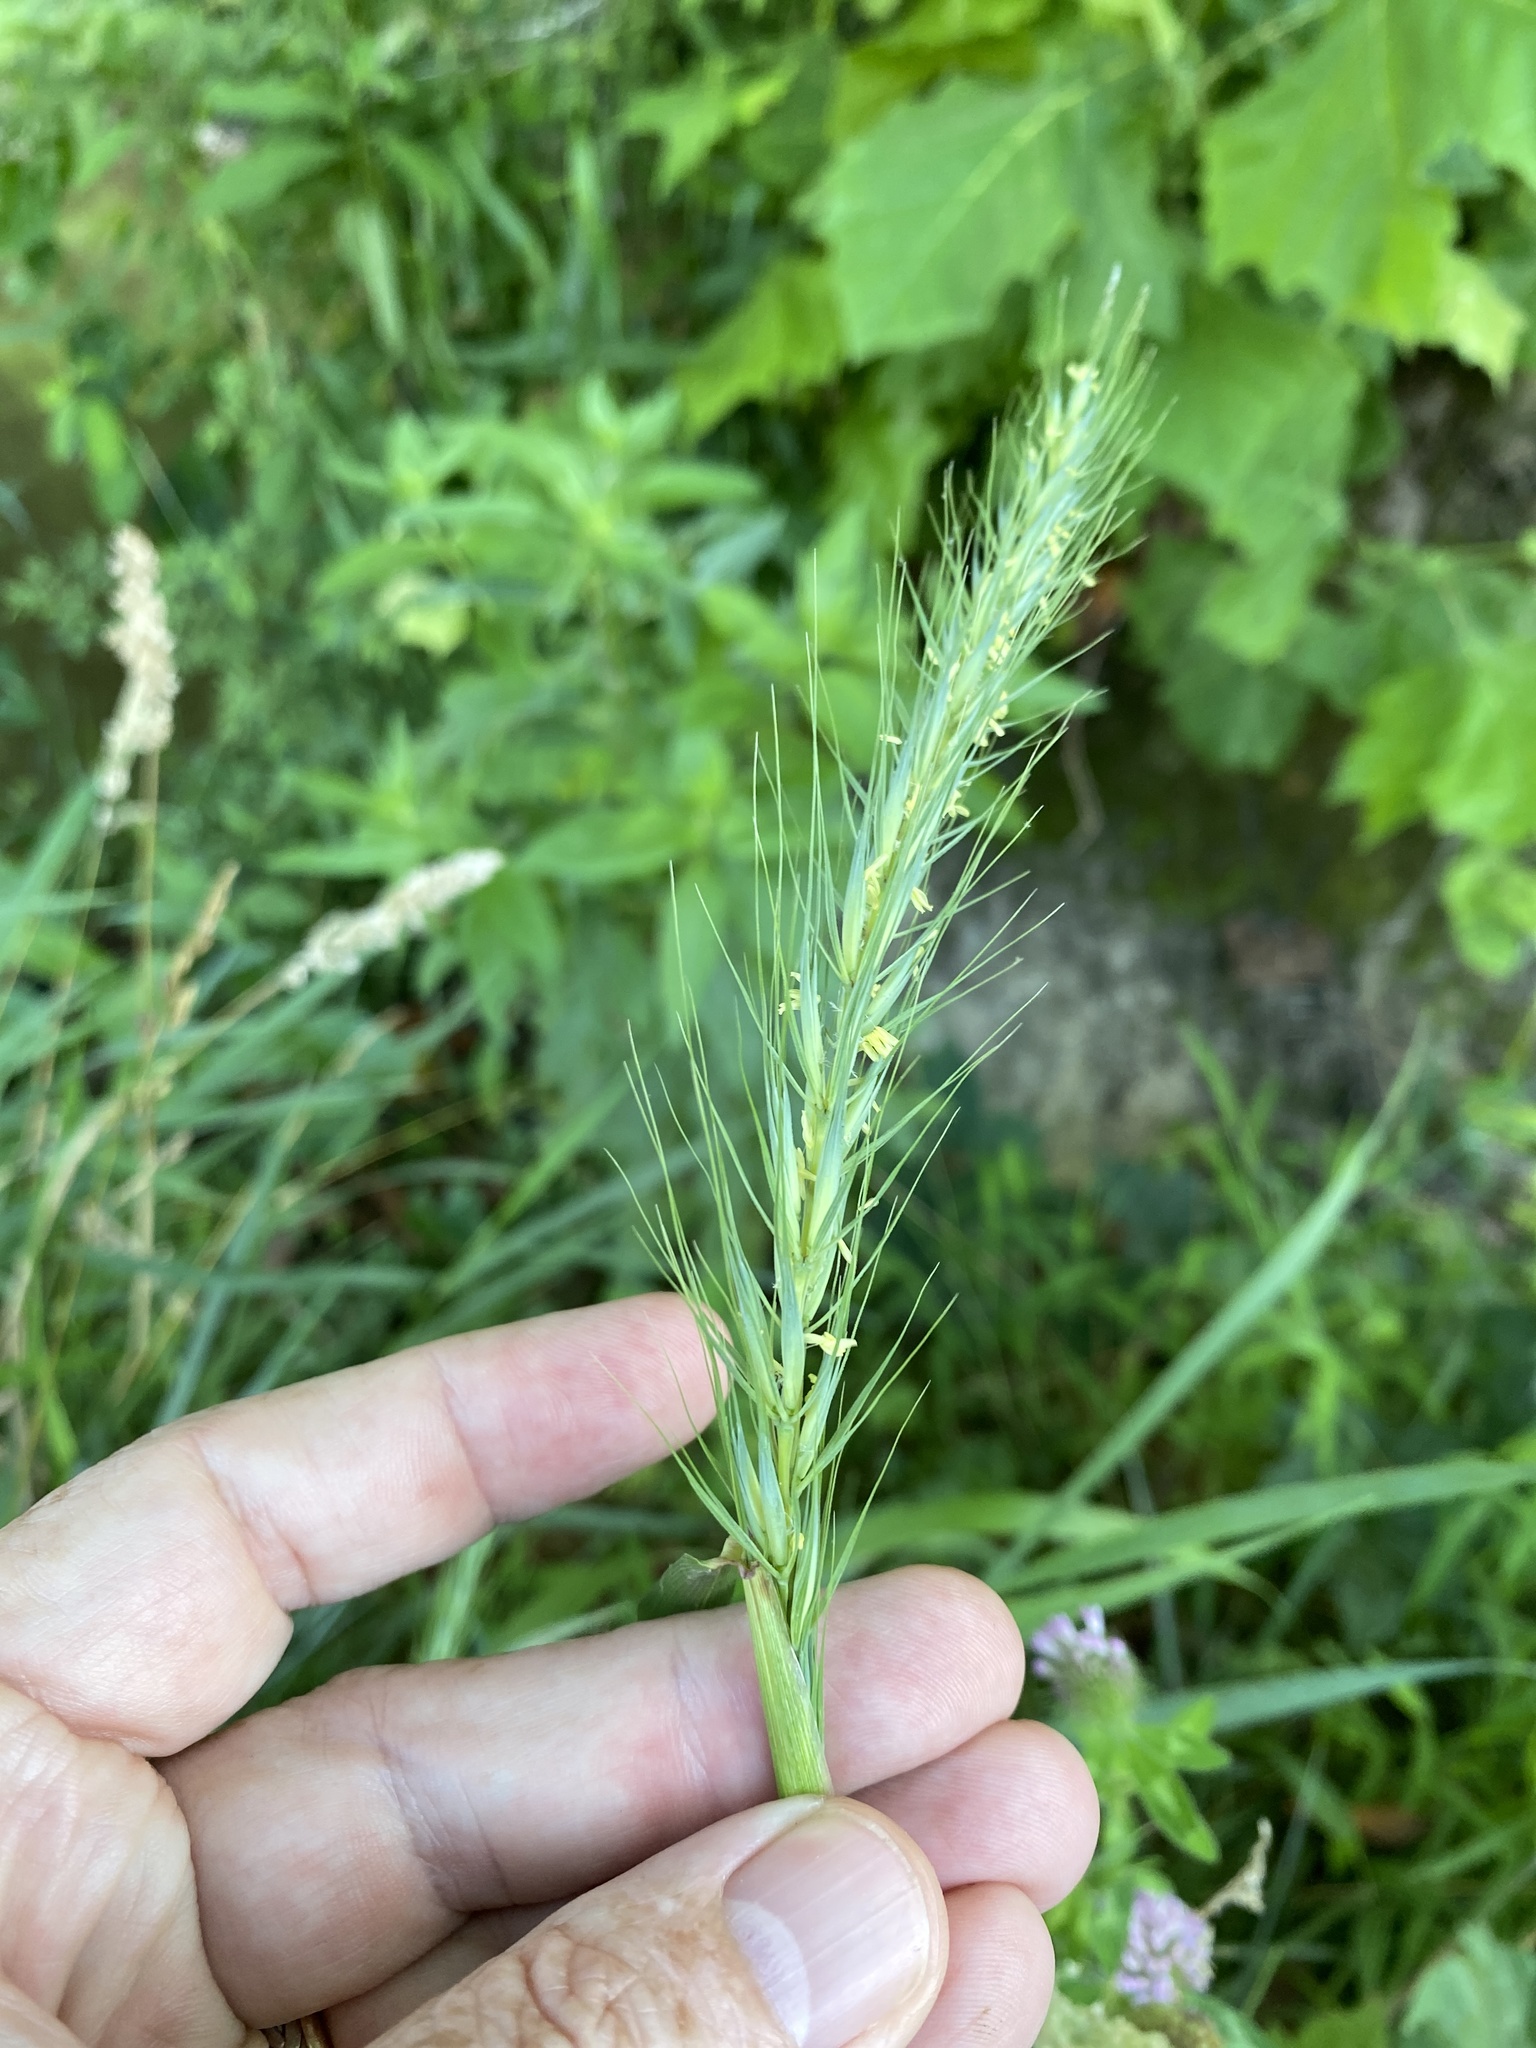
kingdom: Plantae
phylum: Tracheophyta
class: Liliopsida
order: Poales
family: Poaceae
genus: Elymus
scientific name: Elymus riparius
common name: Eastern riverbank wild rye
